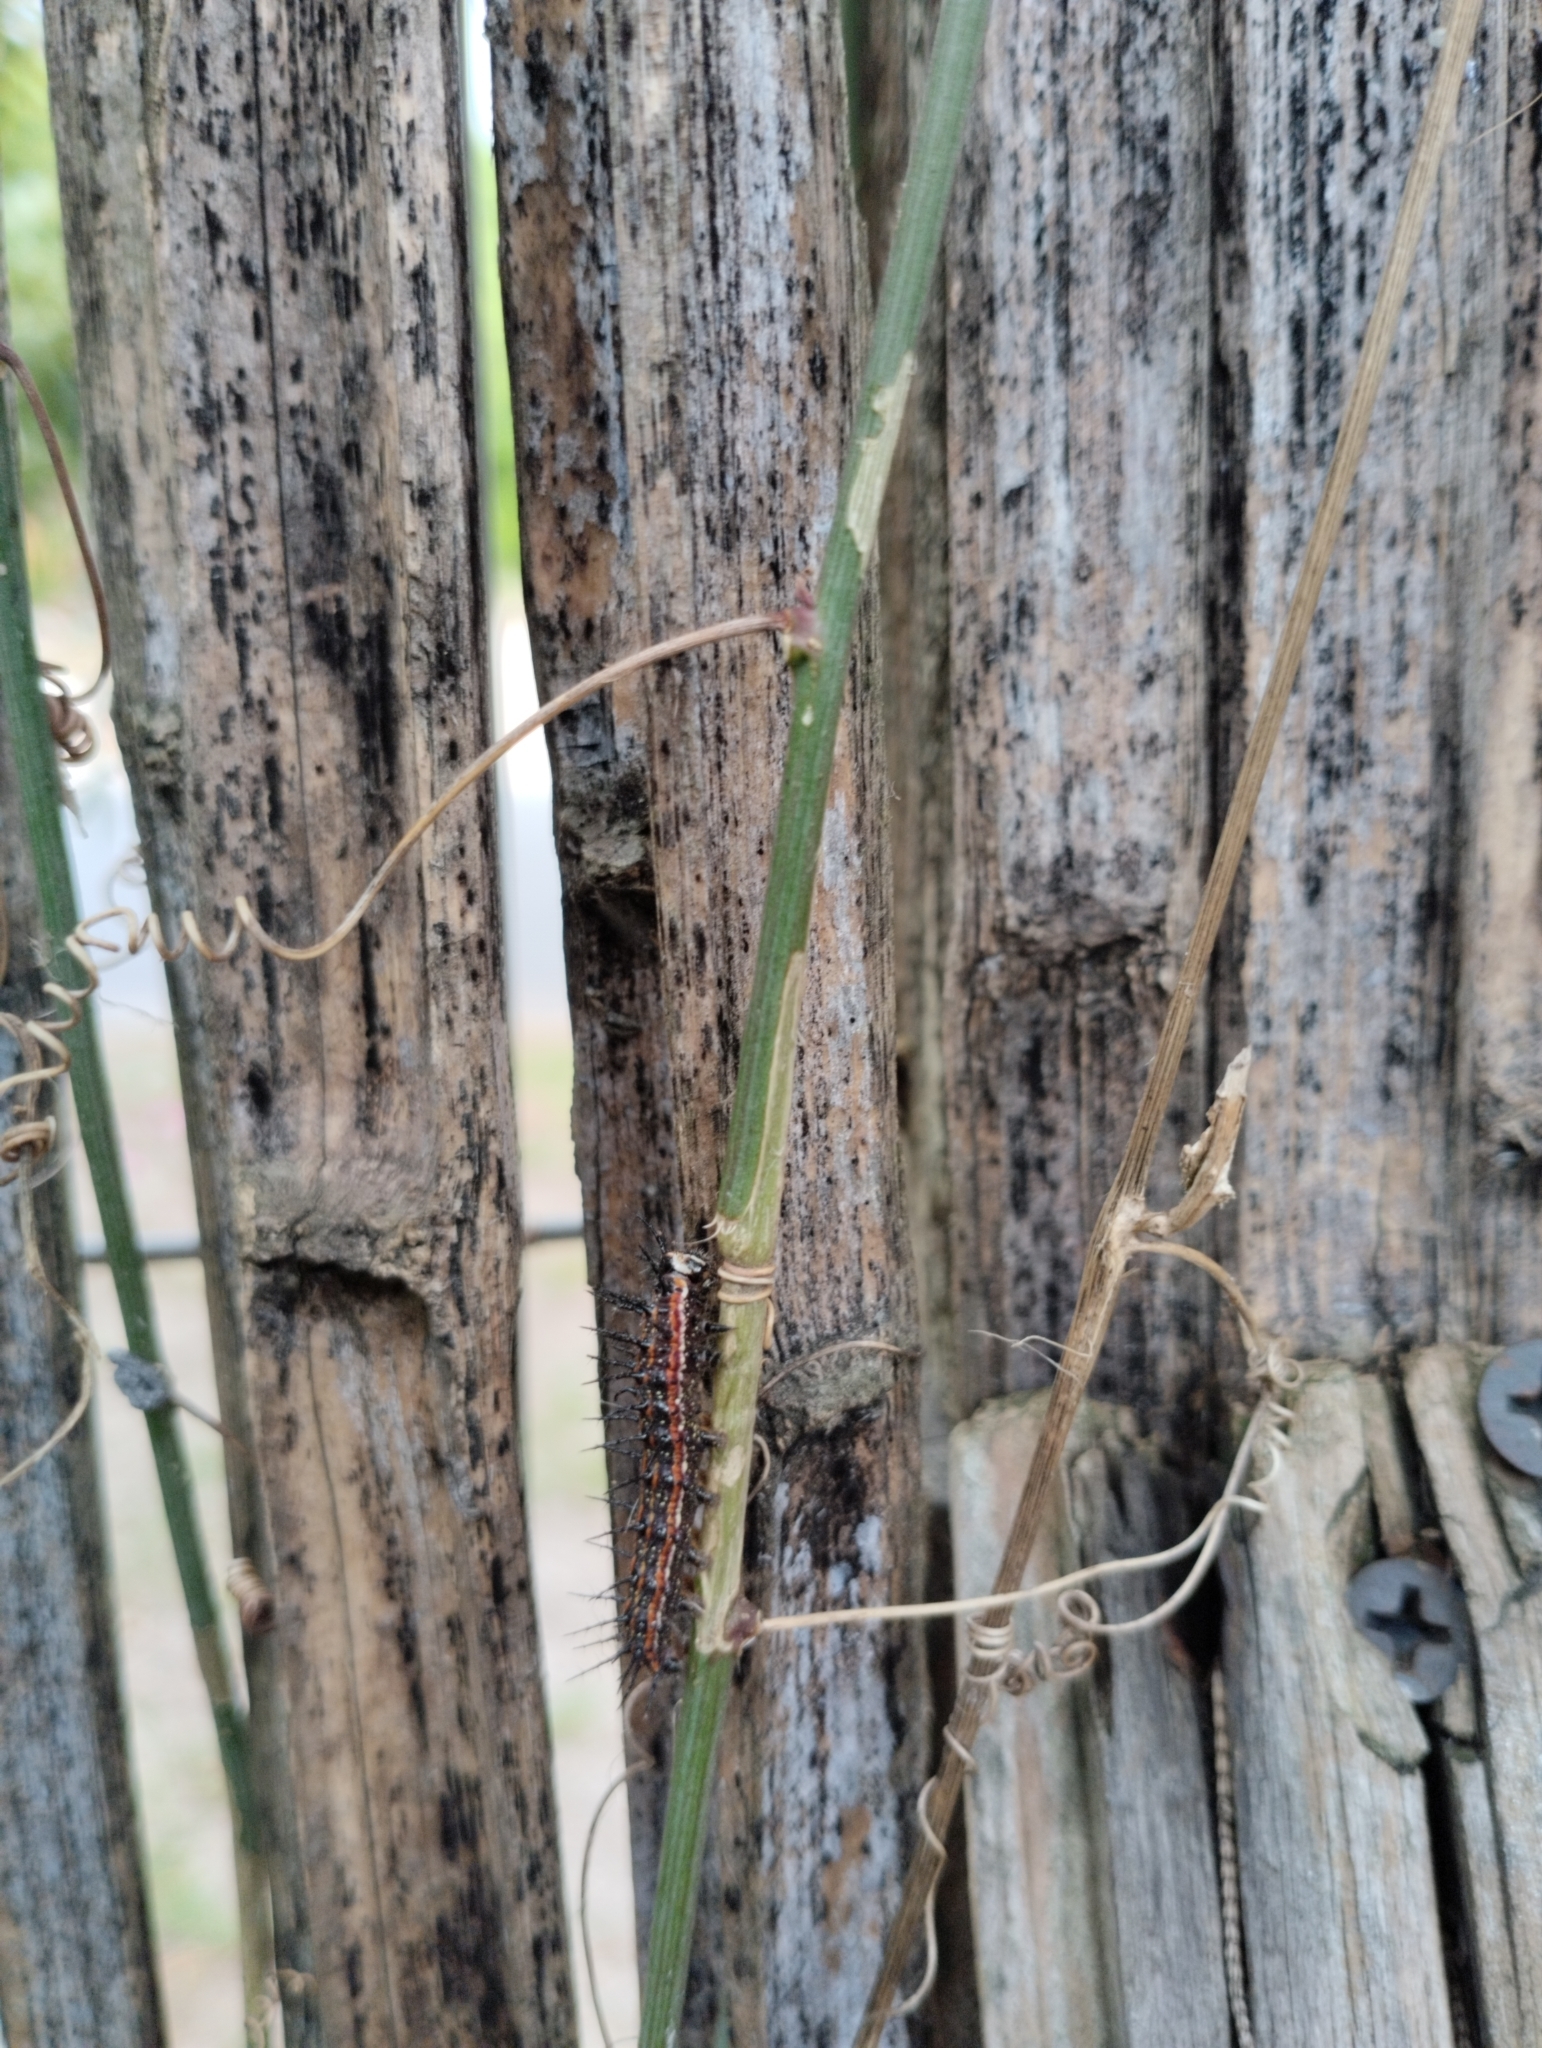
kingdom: Animalia
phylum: Arthropoda
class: Insecta
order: Lepidoptera
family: Nymphalidae
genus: Dione
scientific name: Dione vanillae
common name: Gulf fritillary
